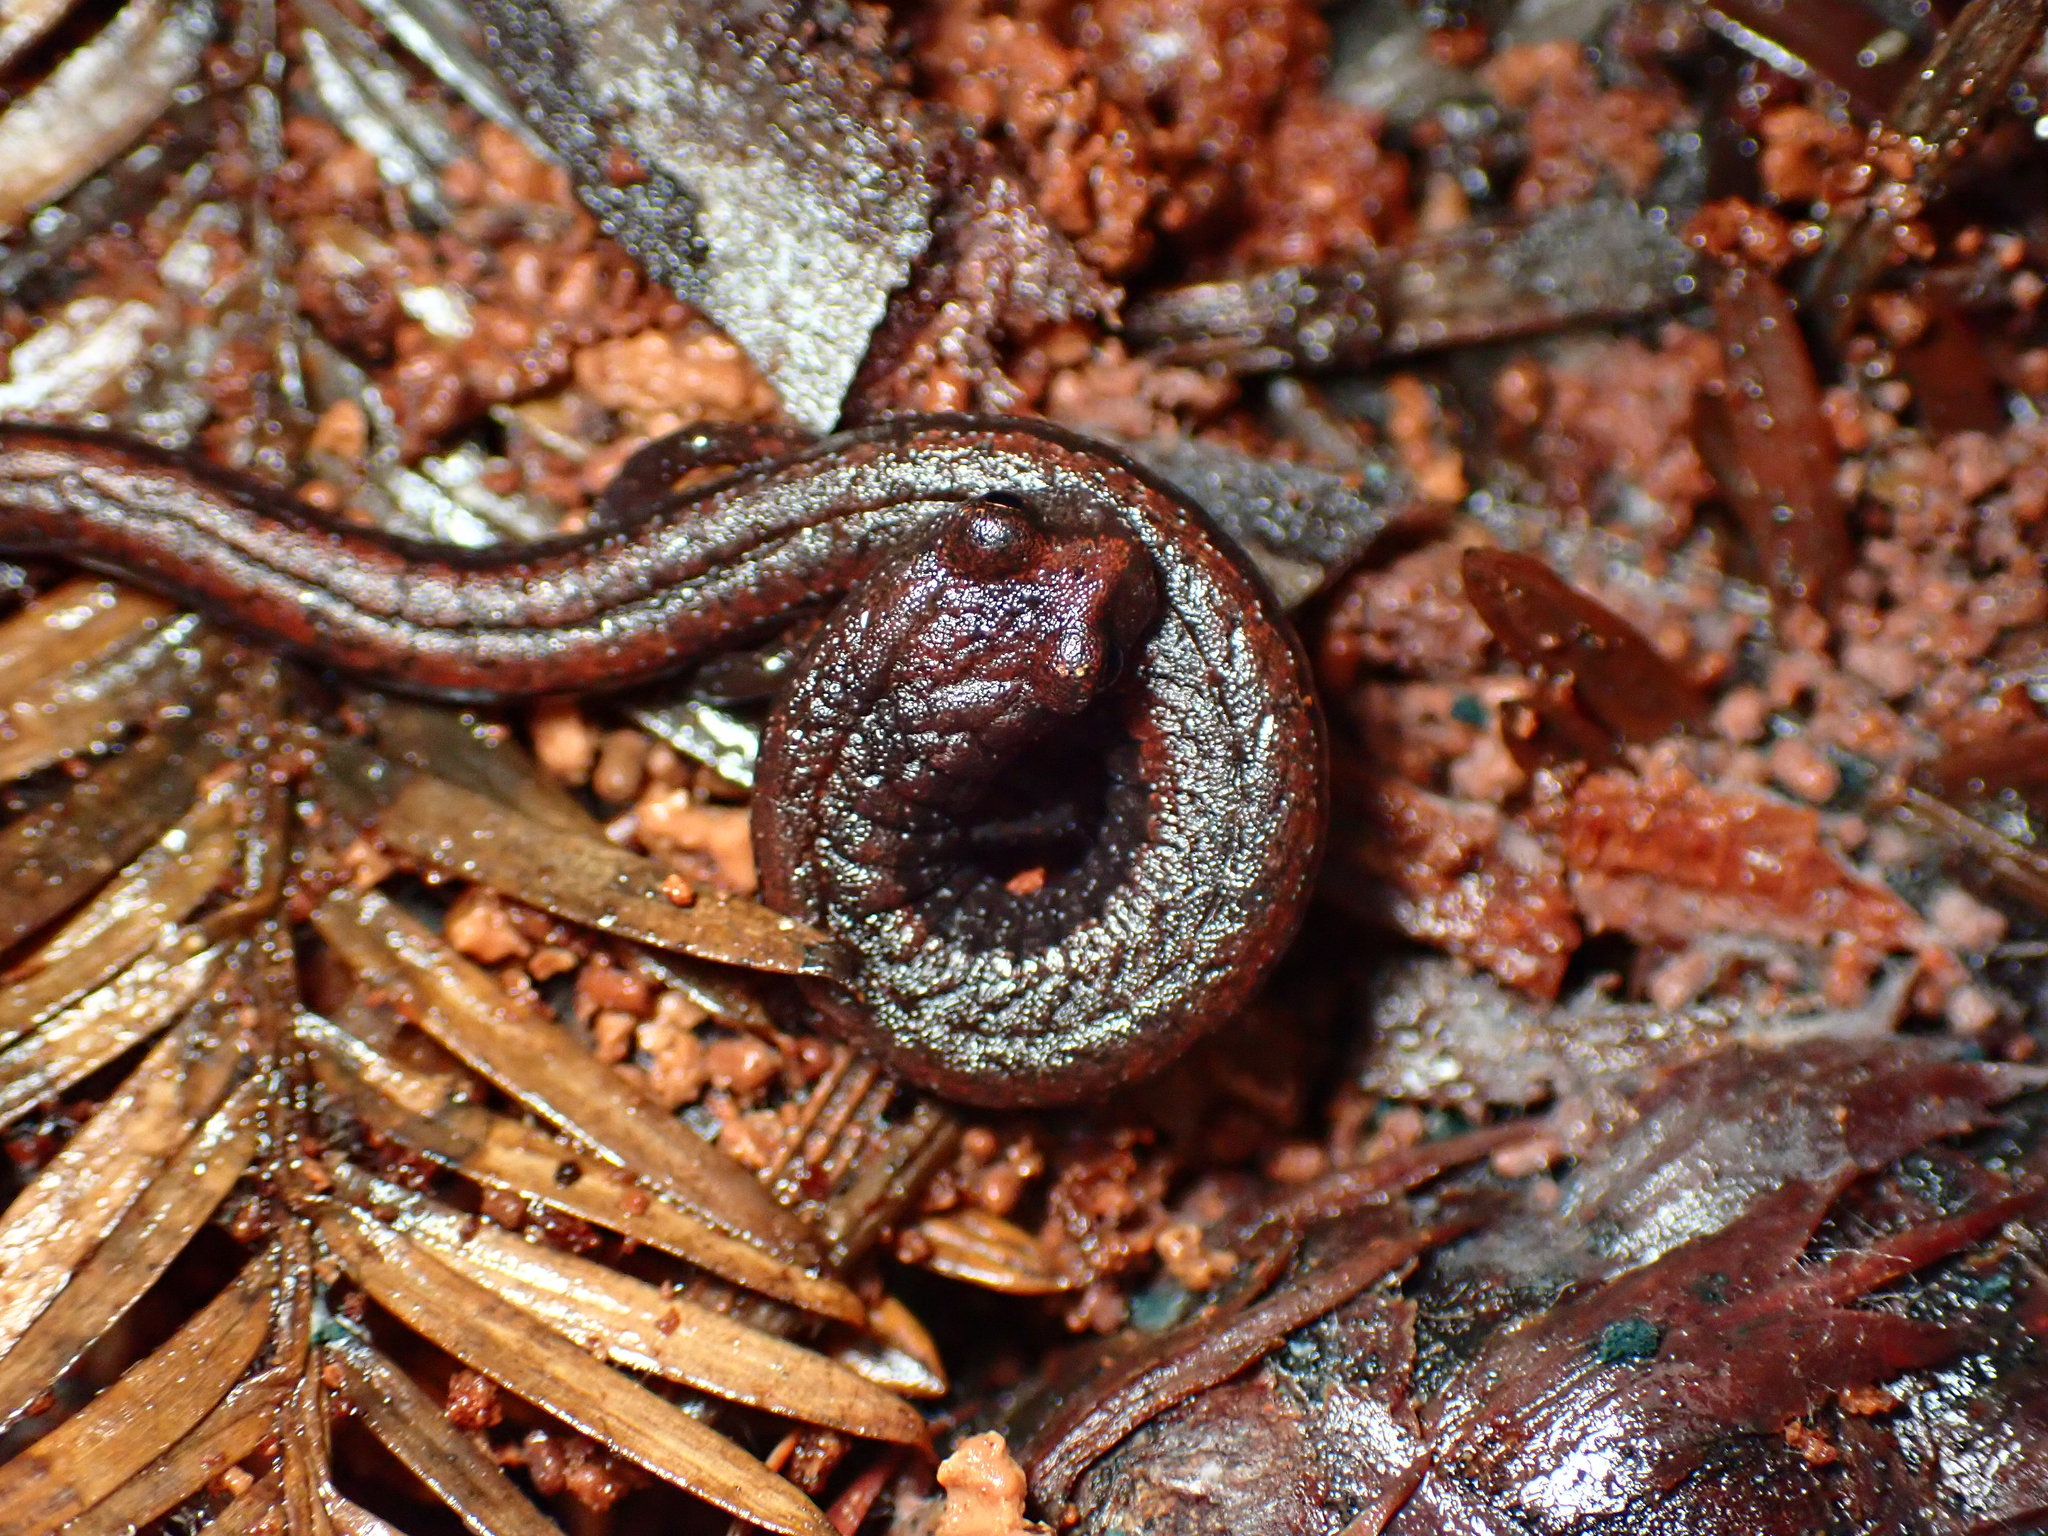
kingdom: Animalia
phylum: Chordata
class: Amphibia
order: Caudata
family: Plethodontidae
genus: Batrachoseps
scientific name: Batrachoseps attenuatus
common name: California slender salamander
